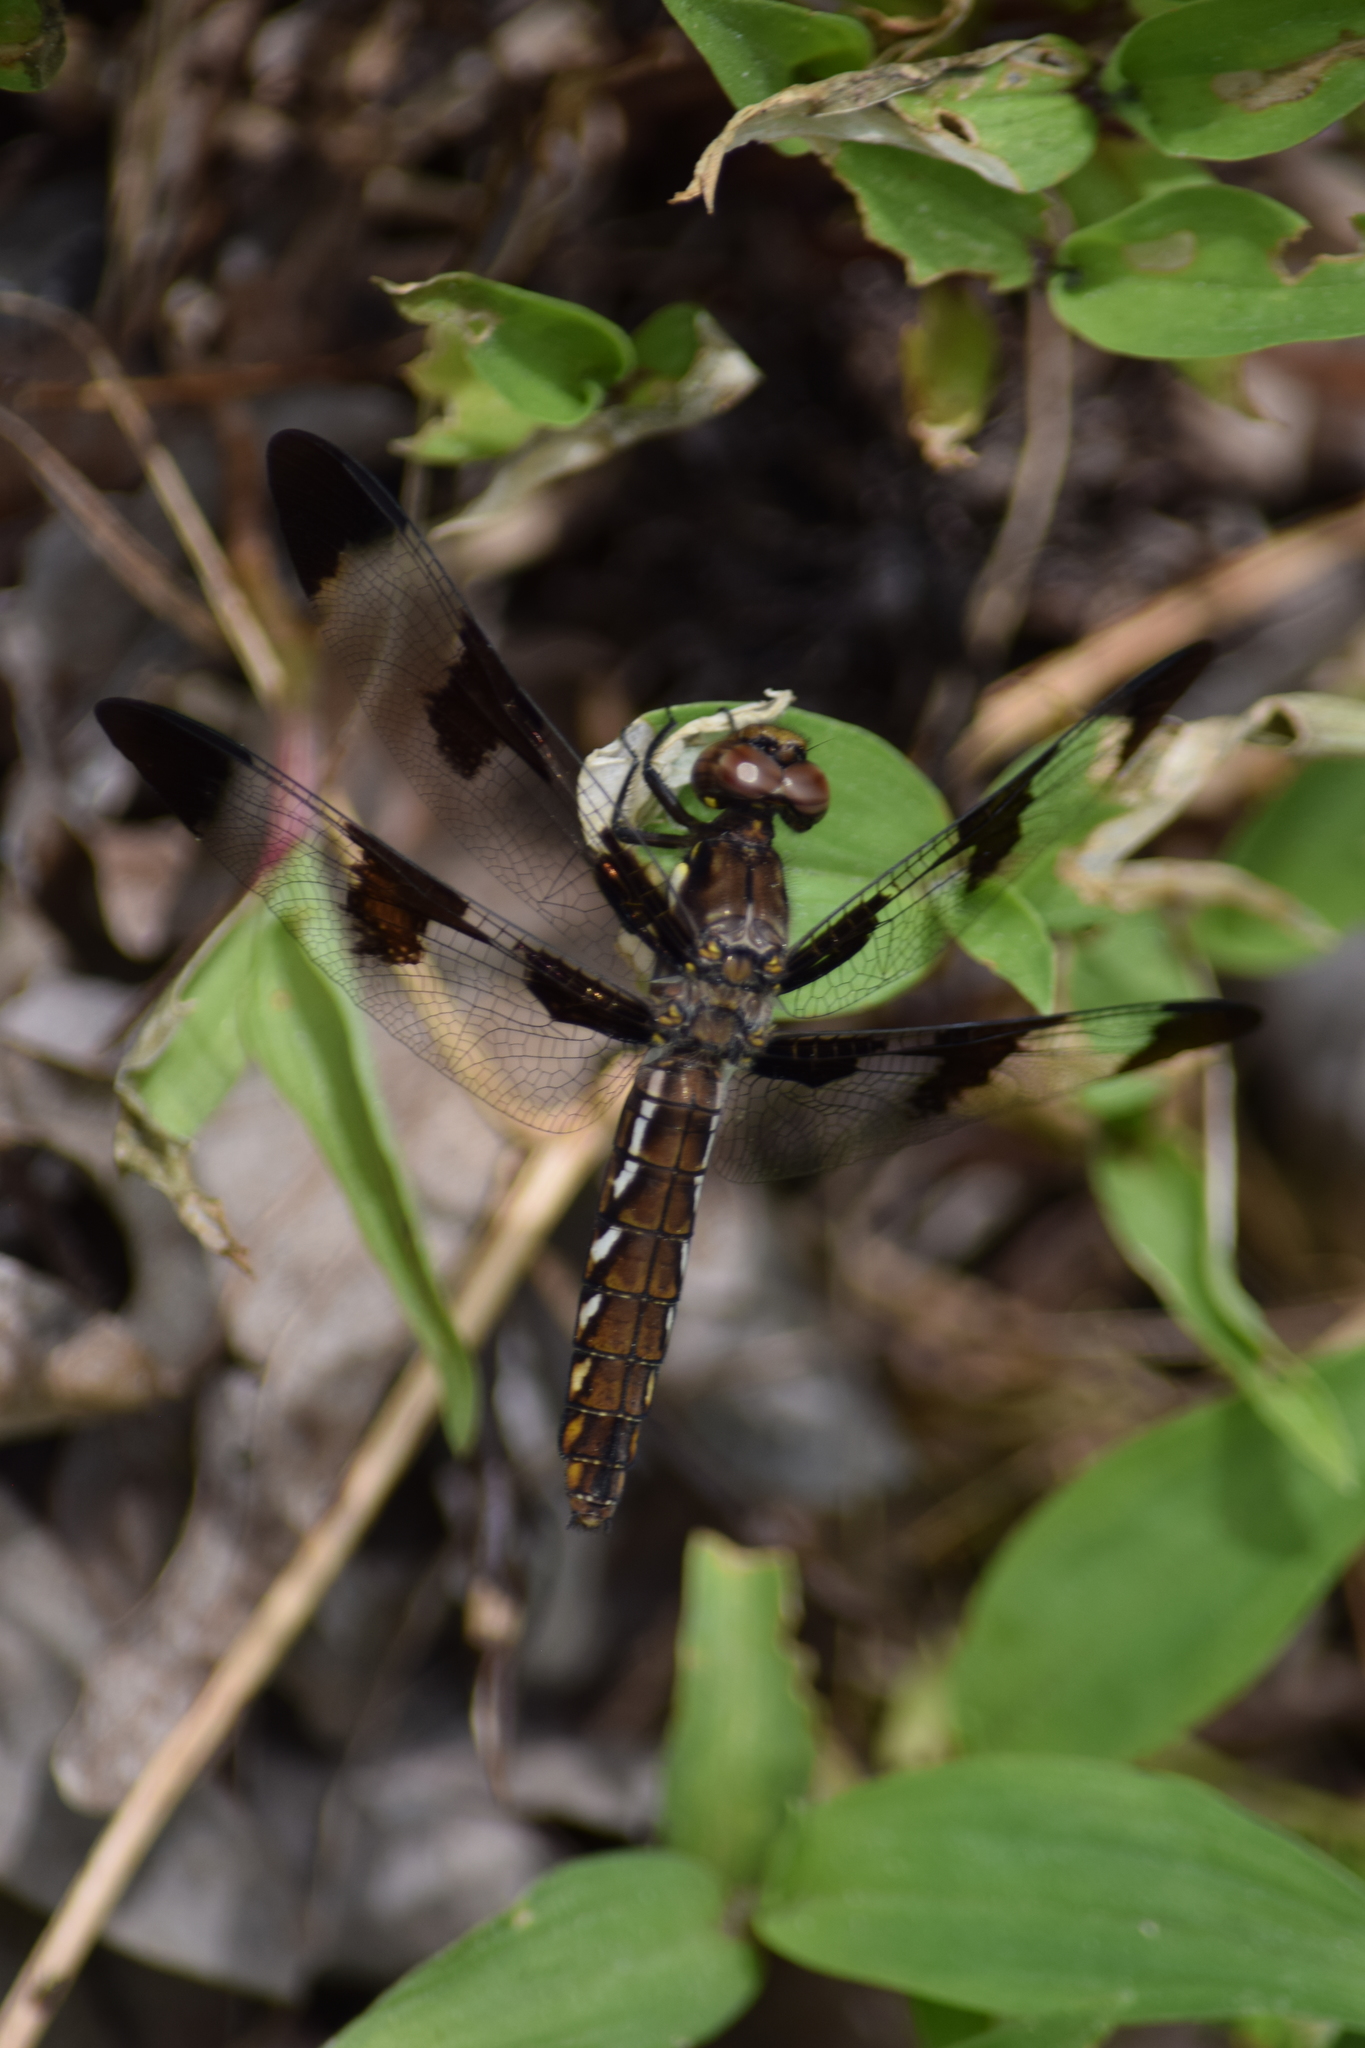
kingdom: Animalia
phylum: Arthropoda
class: Insecta
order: Odonata
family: Libellulidae
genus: Plathemis
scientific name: Plathemis lydia
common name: Common whitetail
